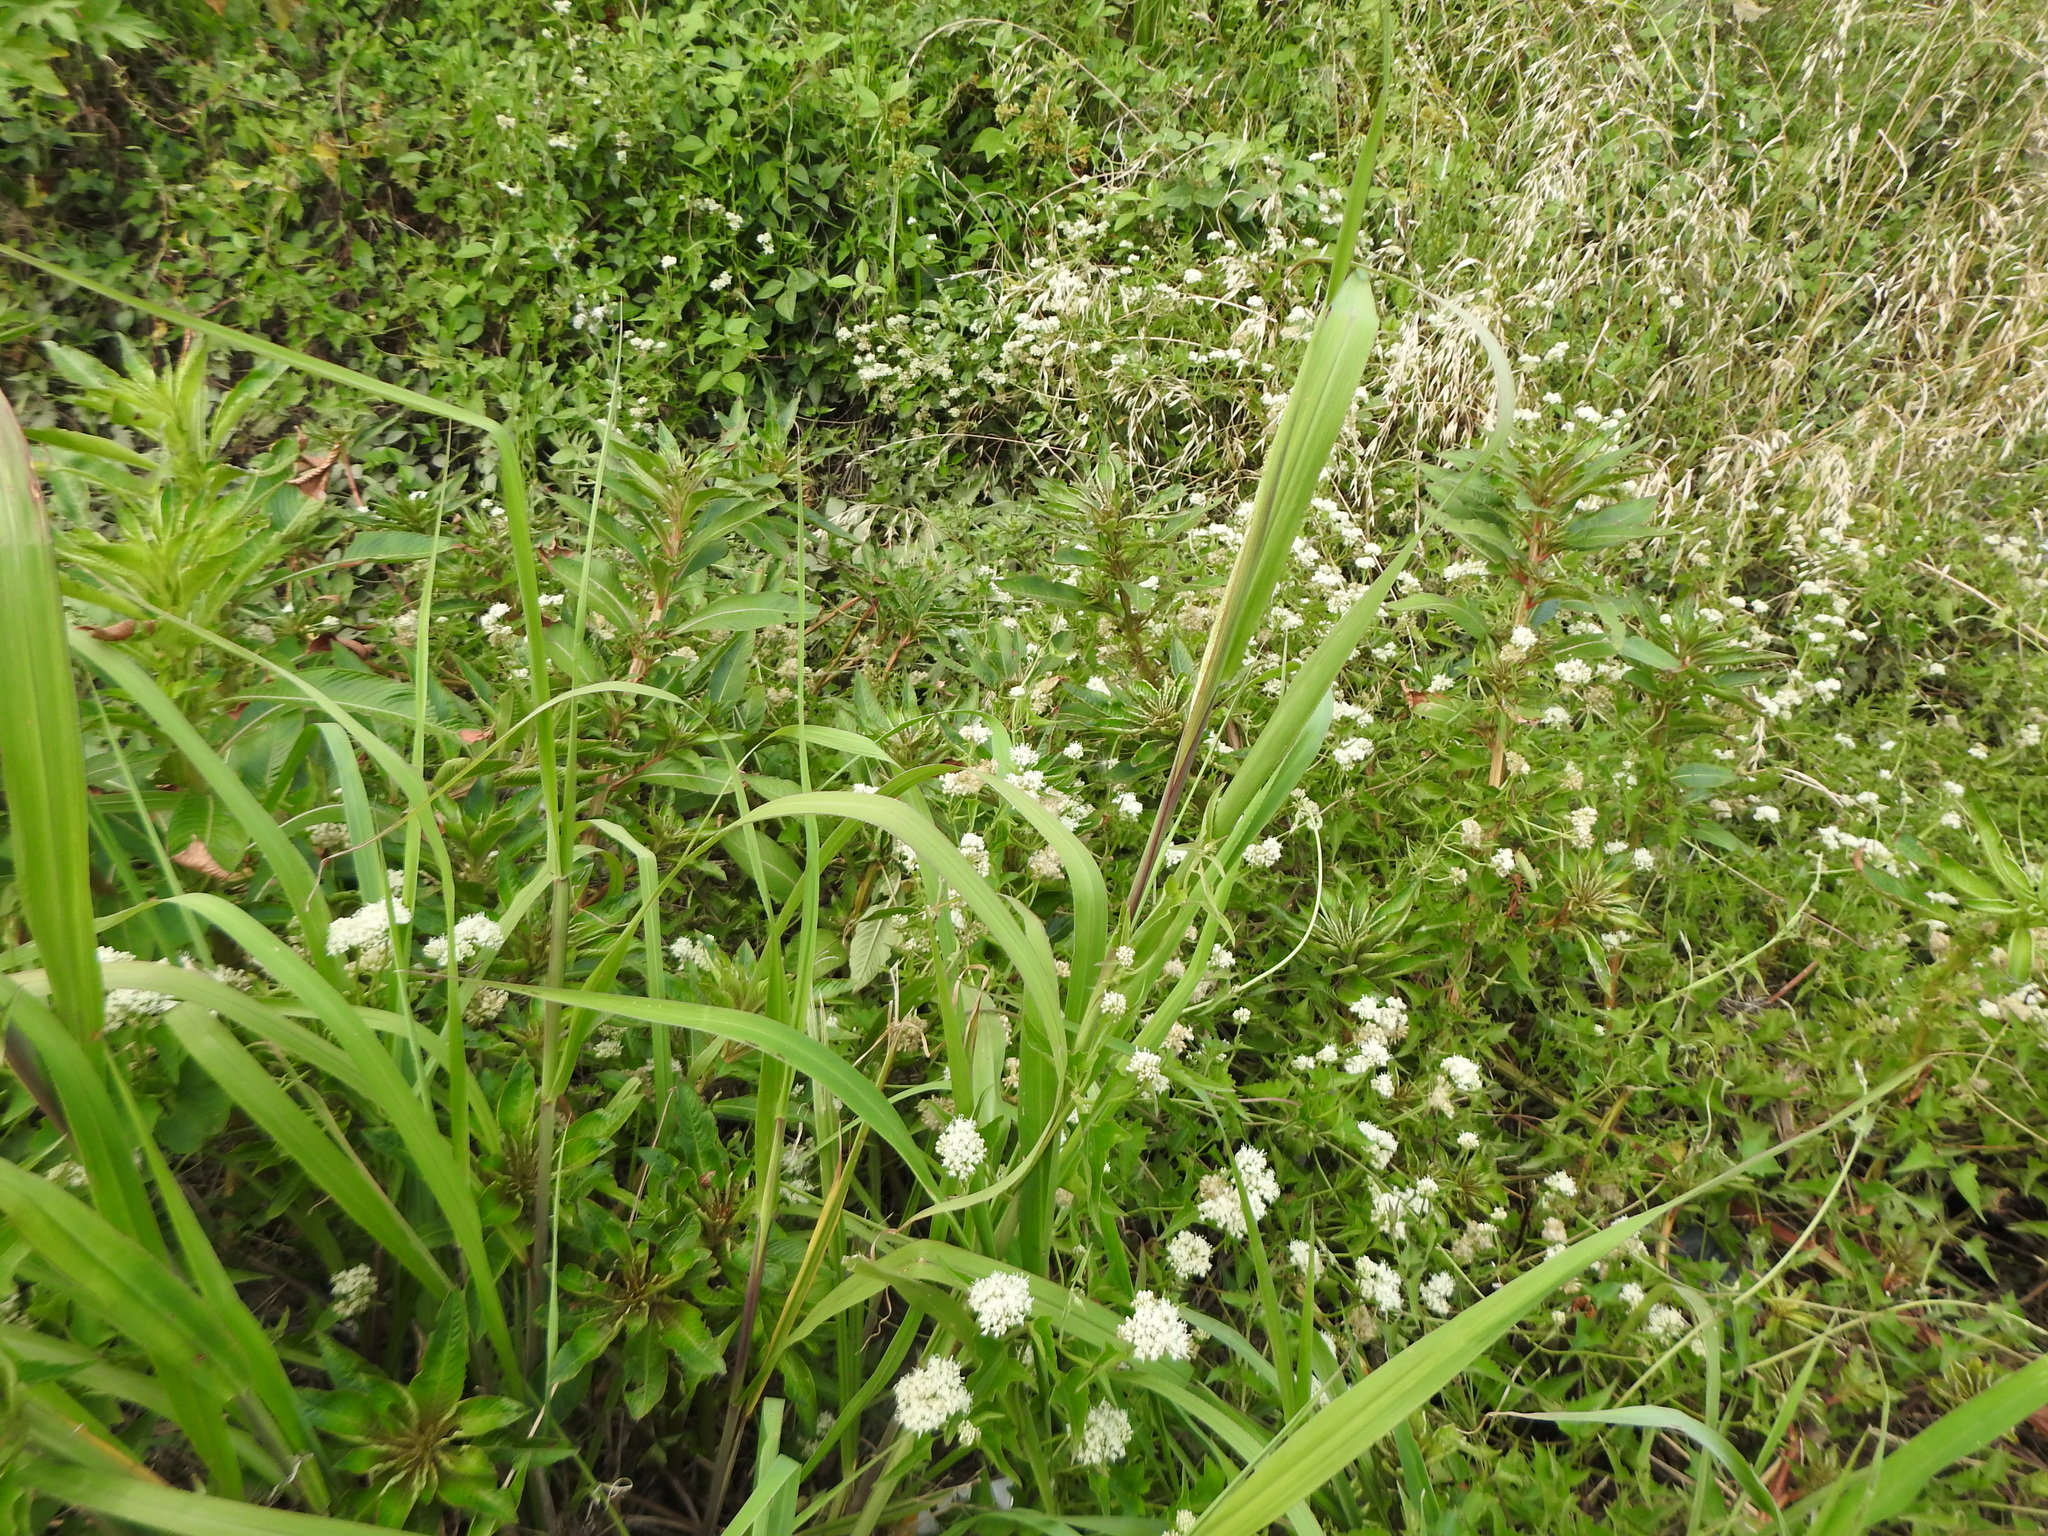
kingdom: Plantae
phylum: Tracheophyta
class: Magnoliopsida
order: Asterales
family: Asteraceae
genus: Mikania
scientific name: Mikania micrantha
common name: Mile-a-minute
